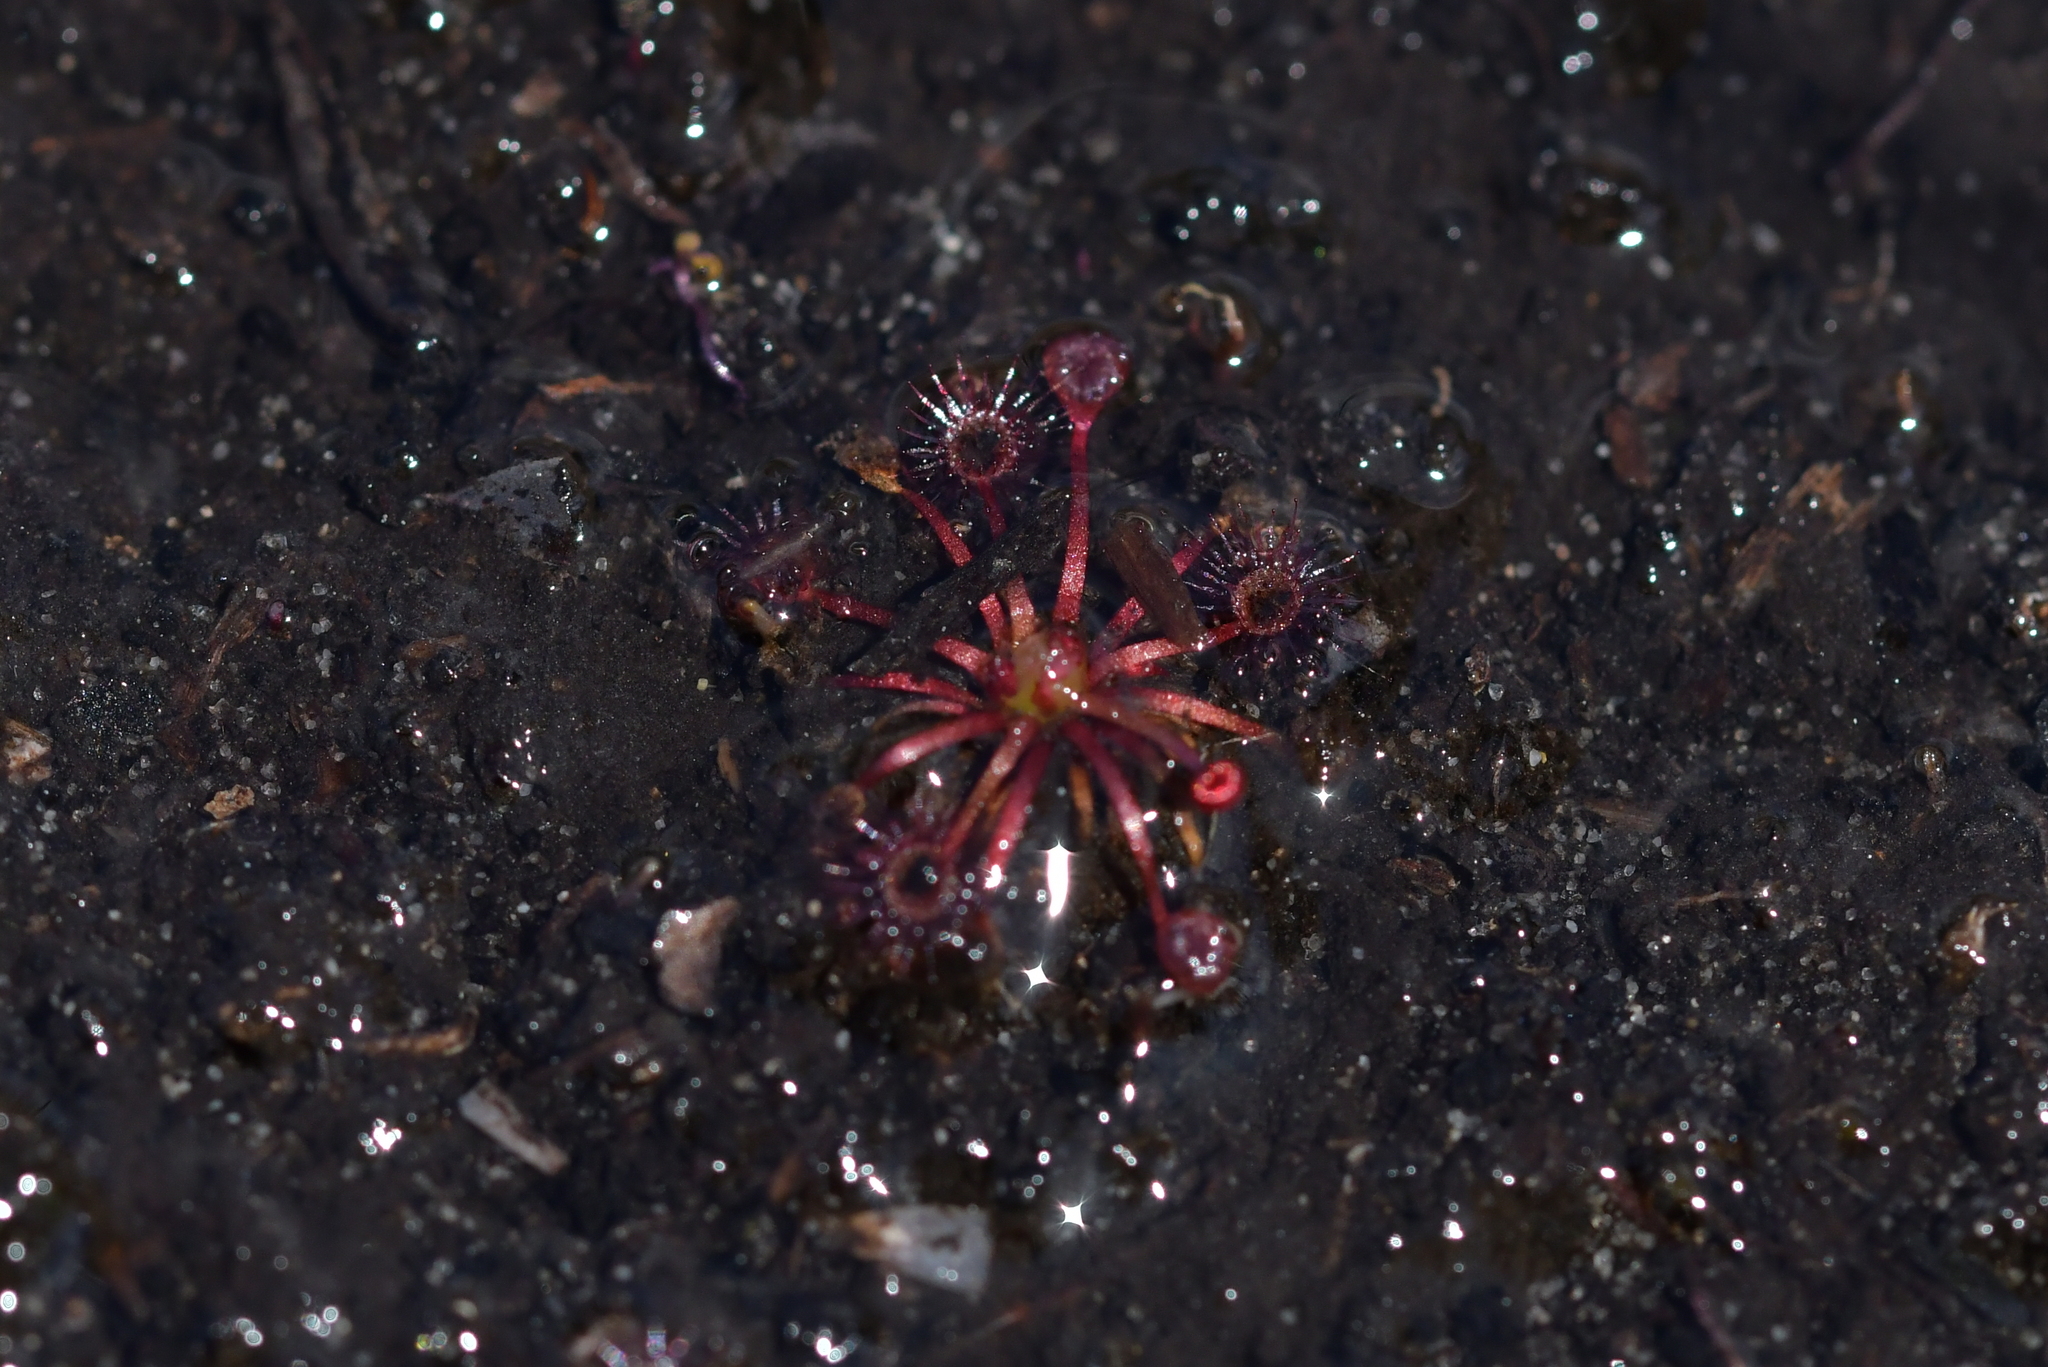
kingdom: Plantae
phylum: Tracheophyta
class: Magnoliopsida
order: Caryophyllales
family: Droseraceae
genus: Drosera
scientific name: Drosera pygmaea
